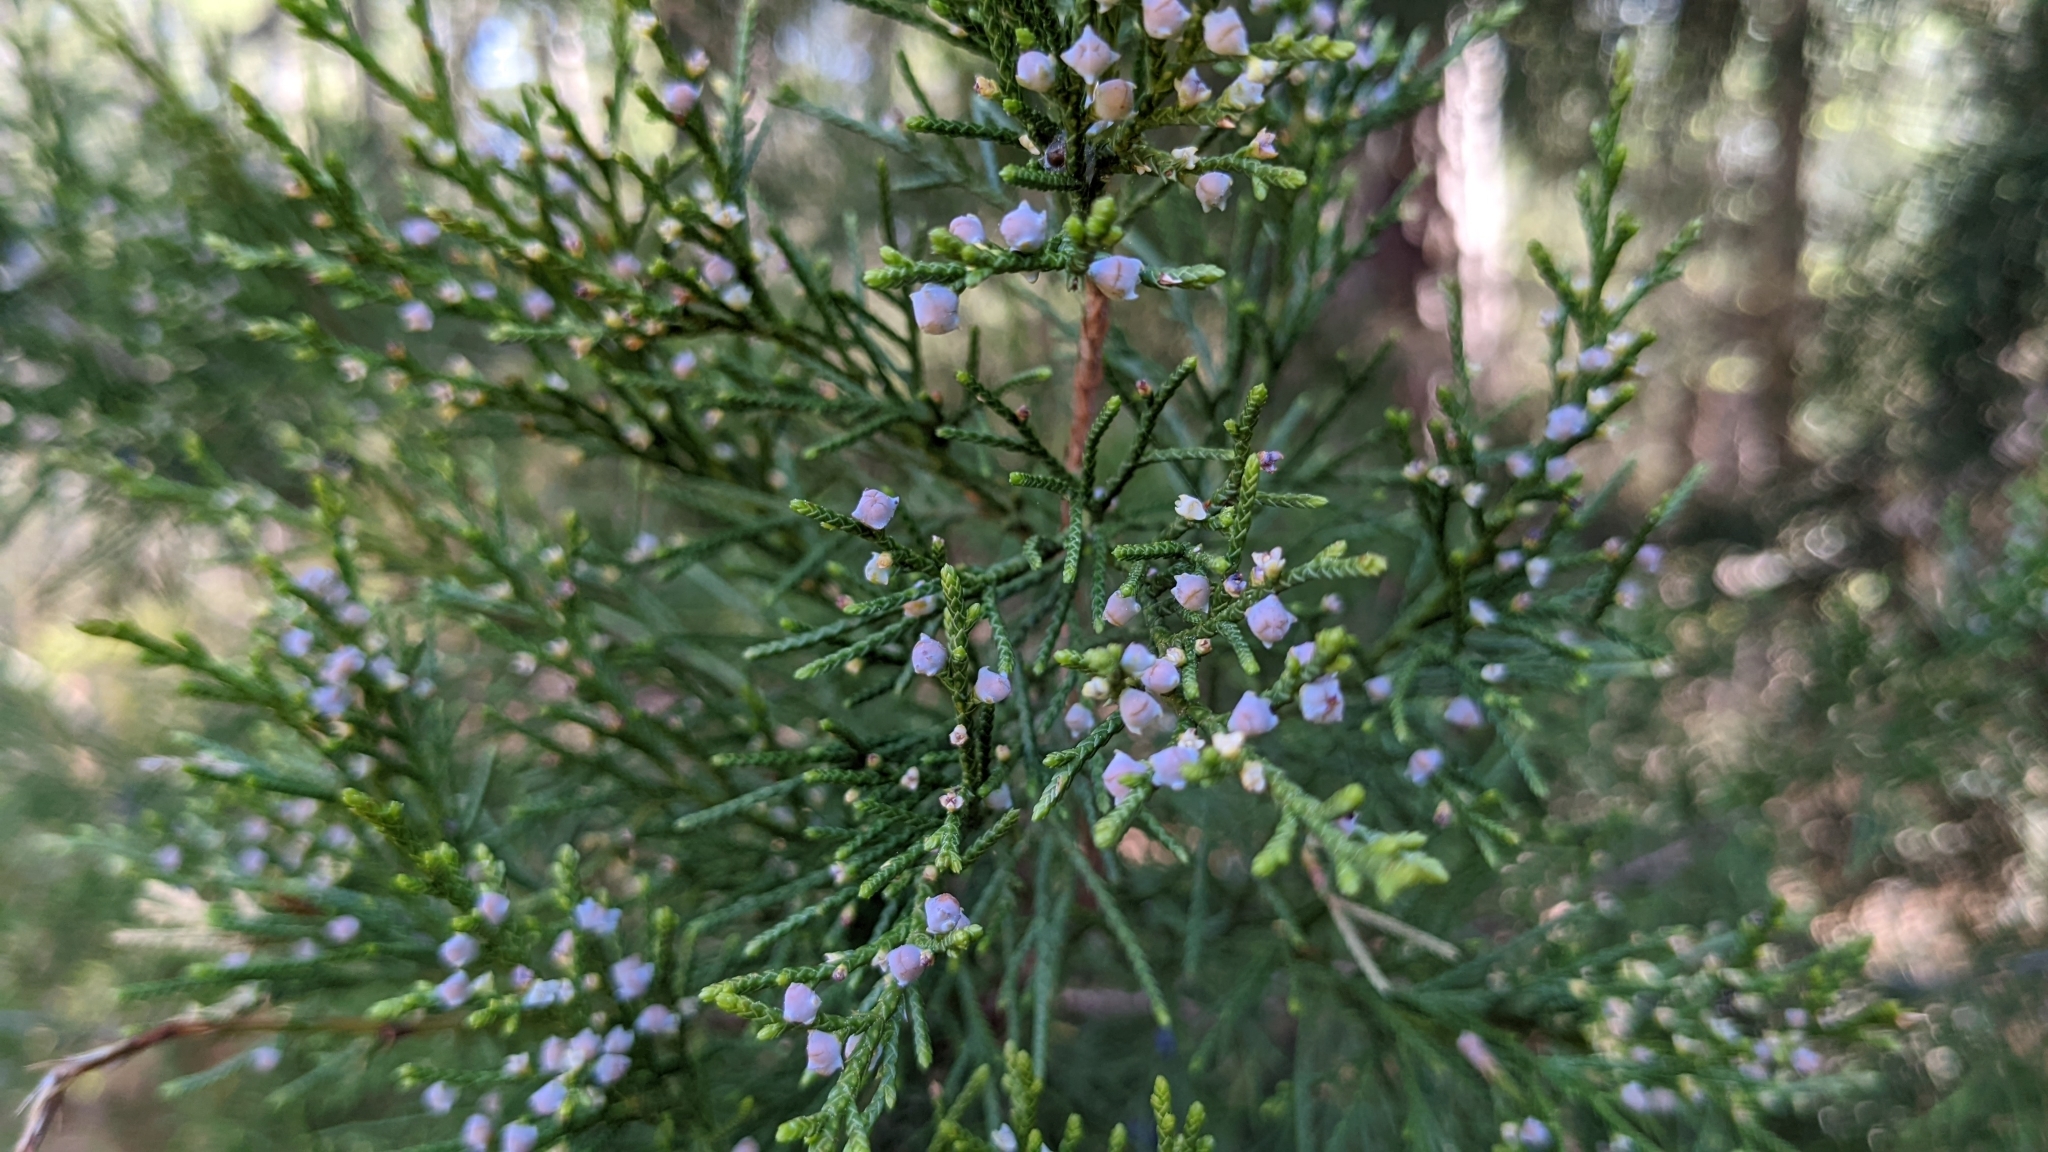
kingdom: Plantae
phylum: Tracheophyta
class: Pinopsida
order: Pinales
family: Cupressaceae
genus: Juniperus
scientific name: Juniperus virginiana
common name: Red juniper
